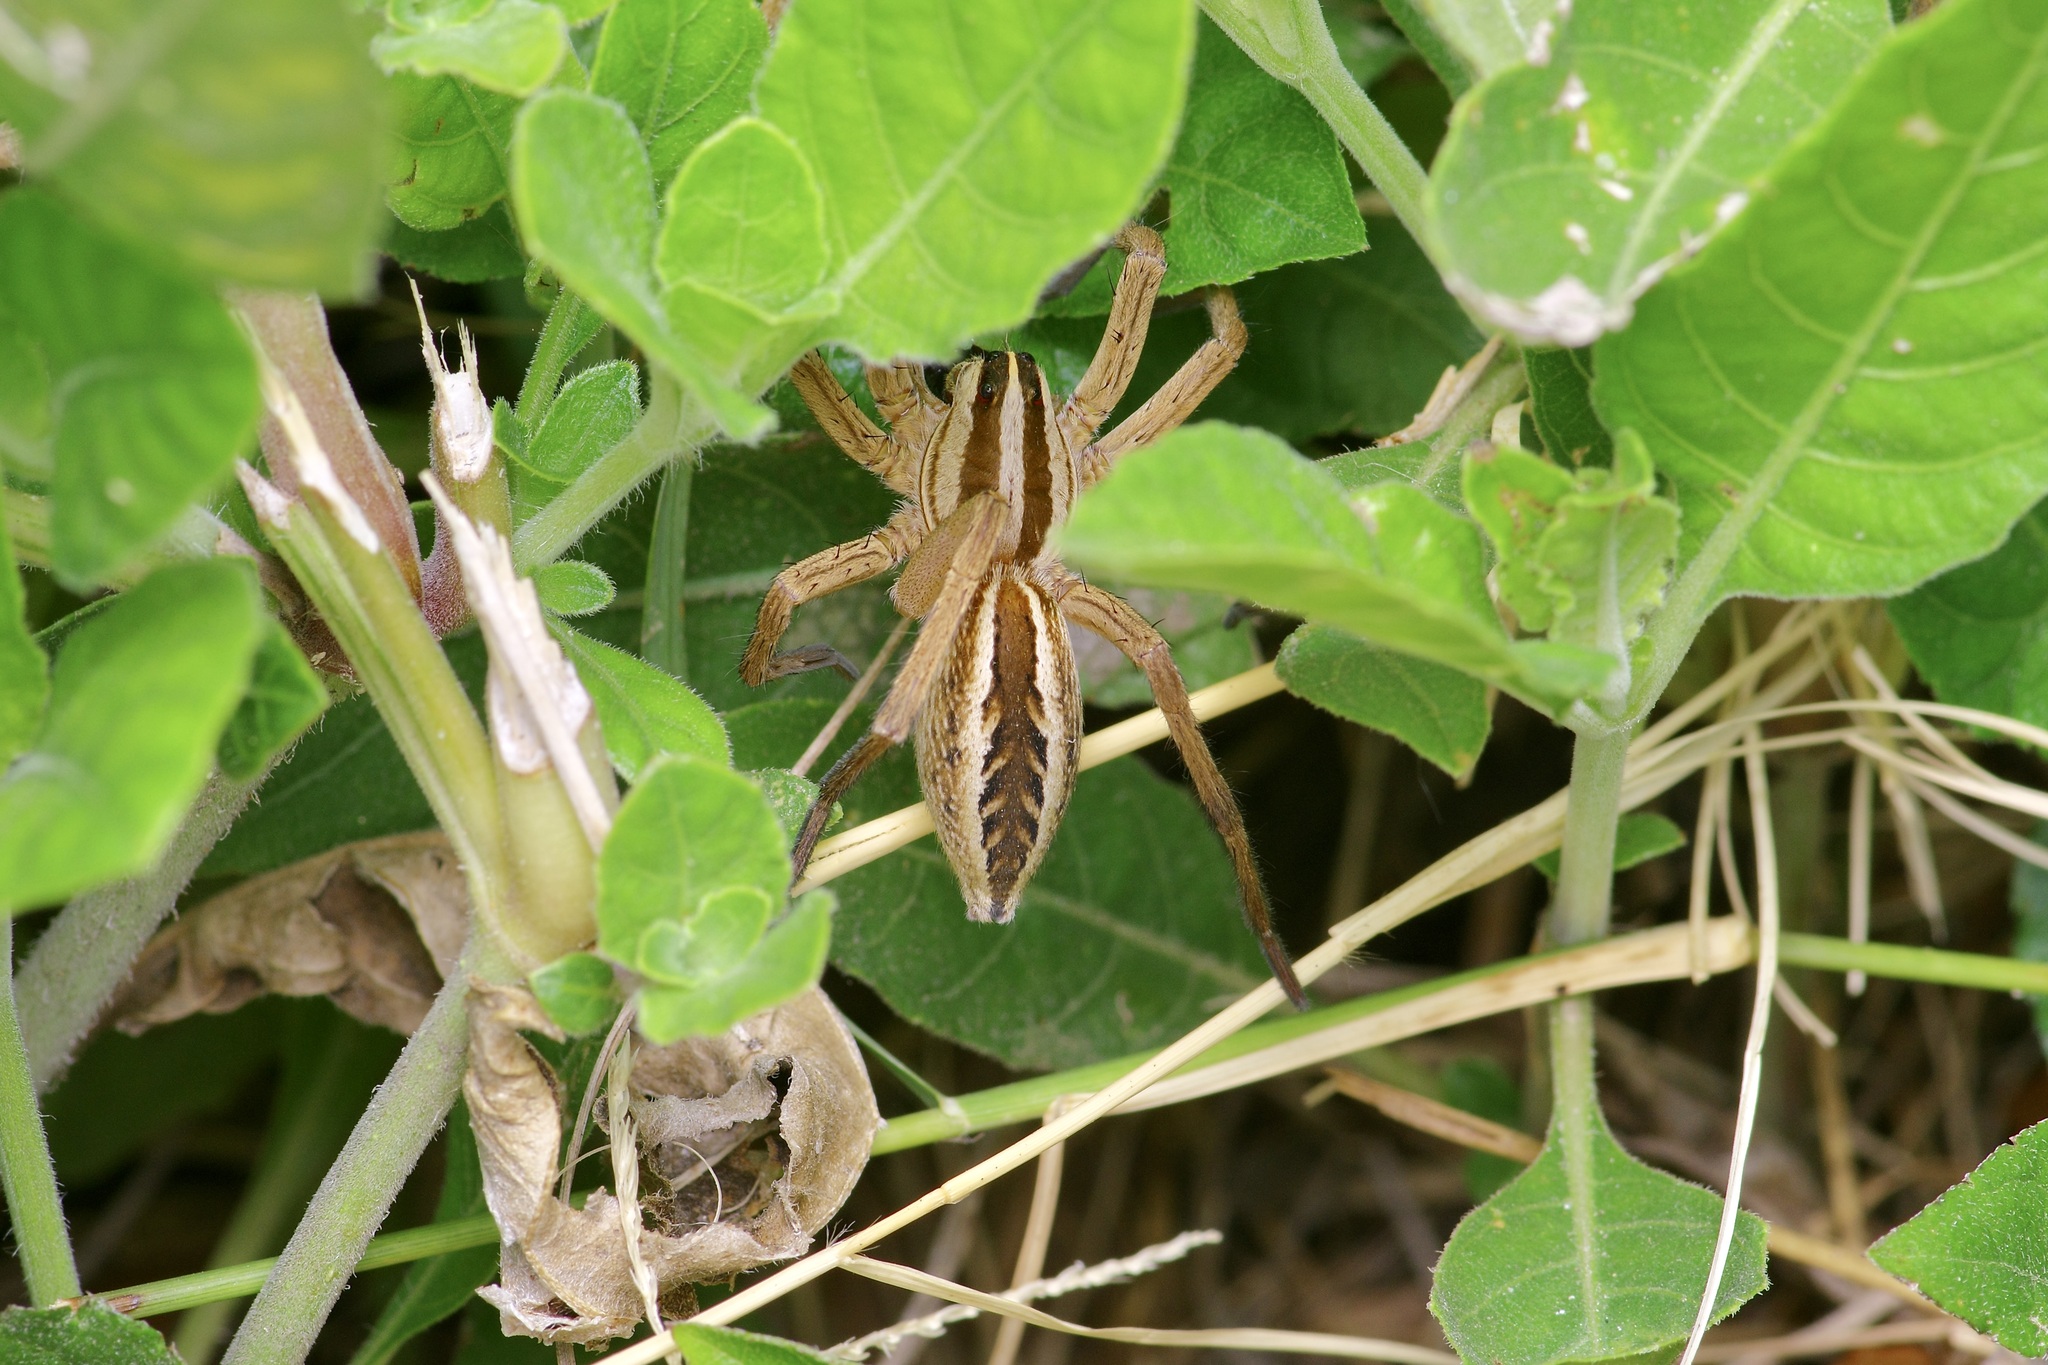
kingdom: Animalia
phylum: Arthropoda
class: Arachnida
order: Araneae
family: Lycosidae
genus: Rabidosa
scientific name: Rabidosa rabida
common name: Rabid wolf spider
